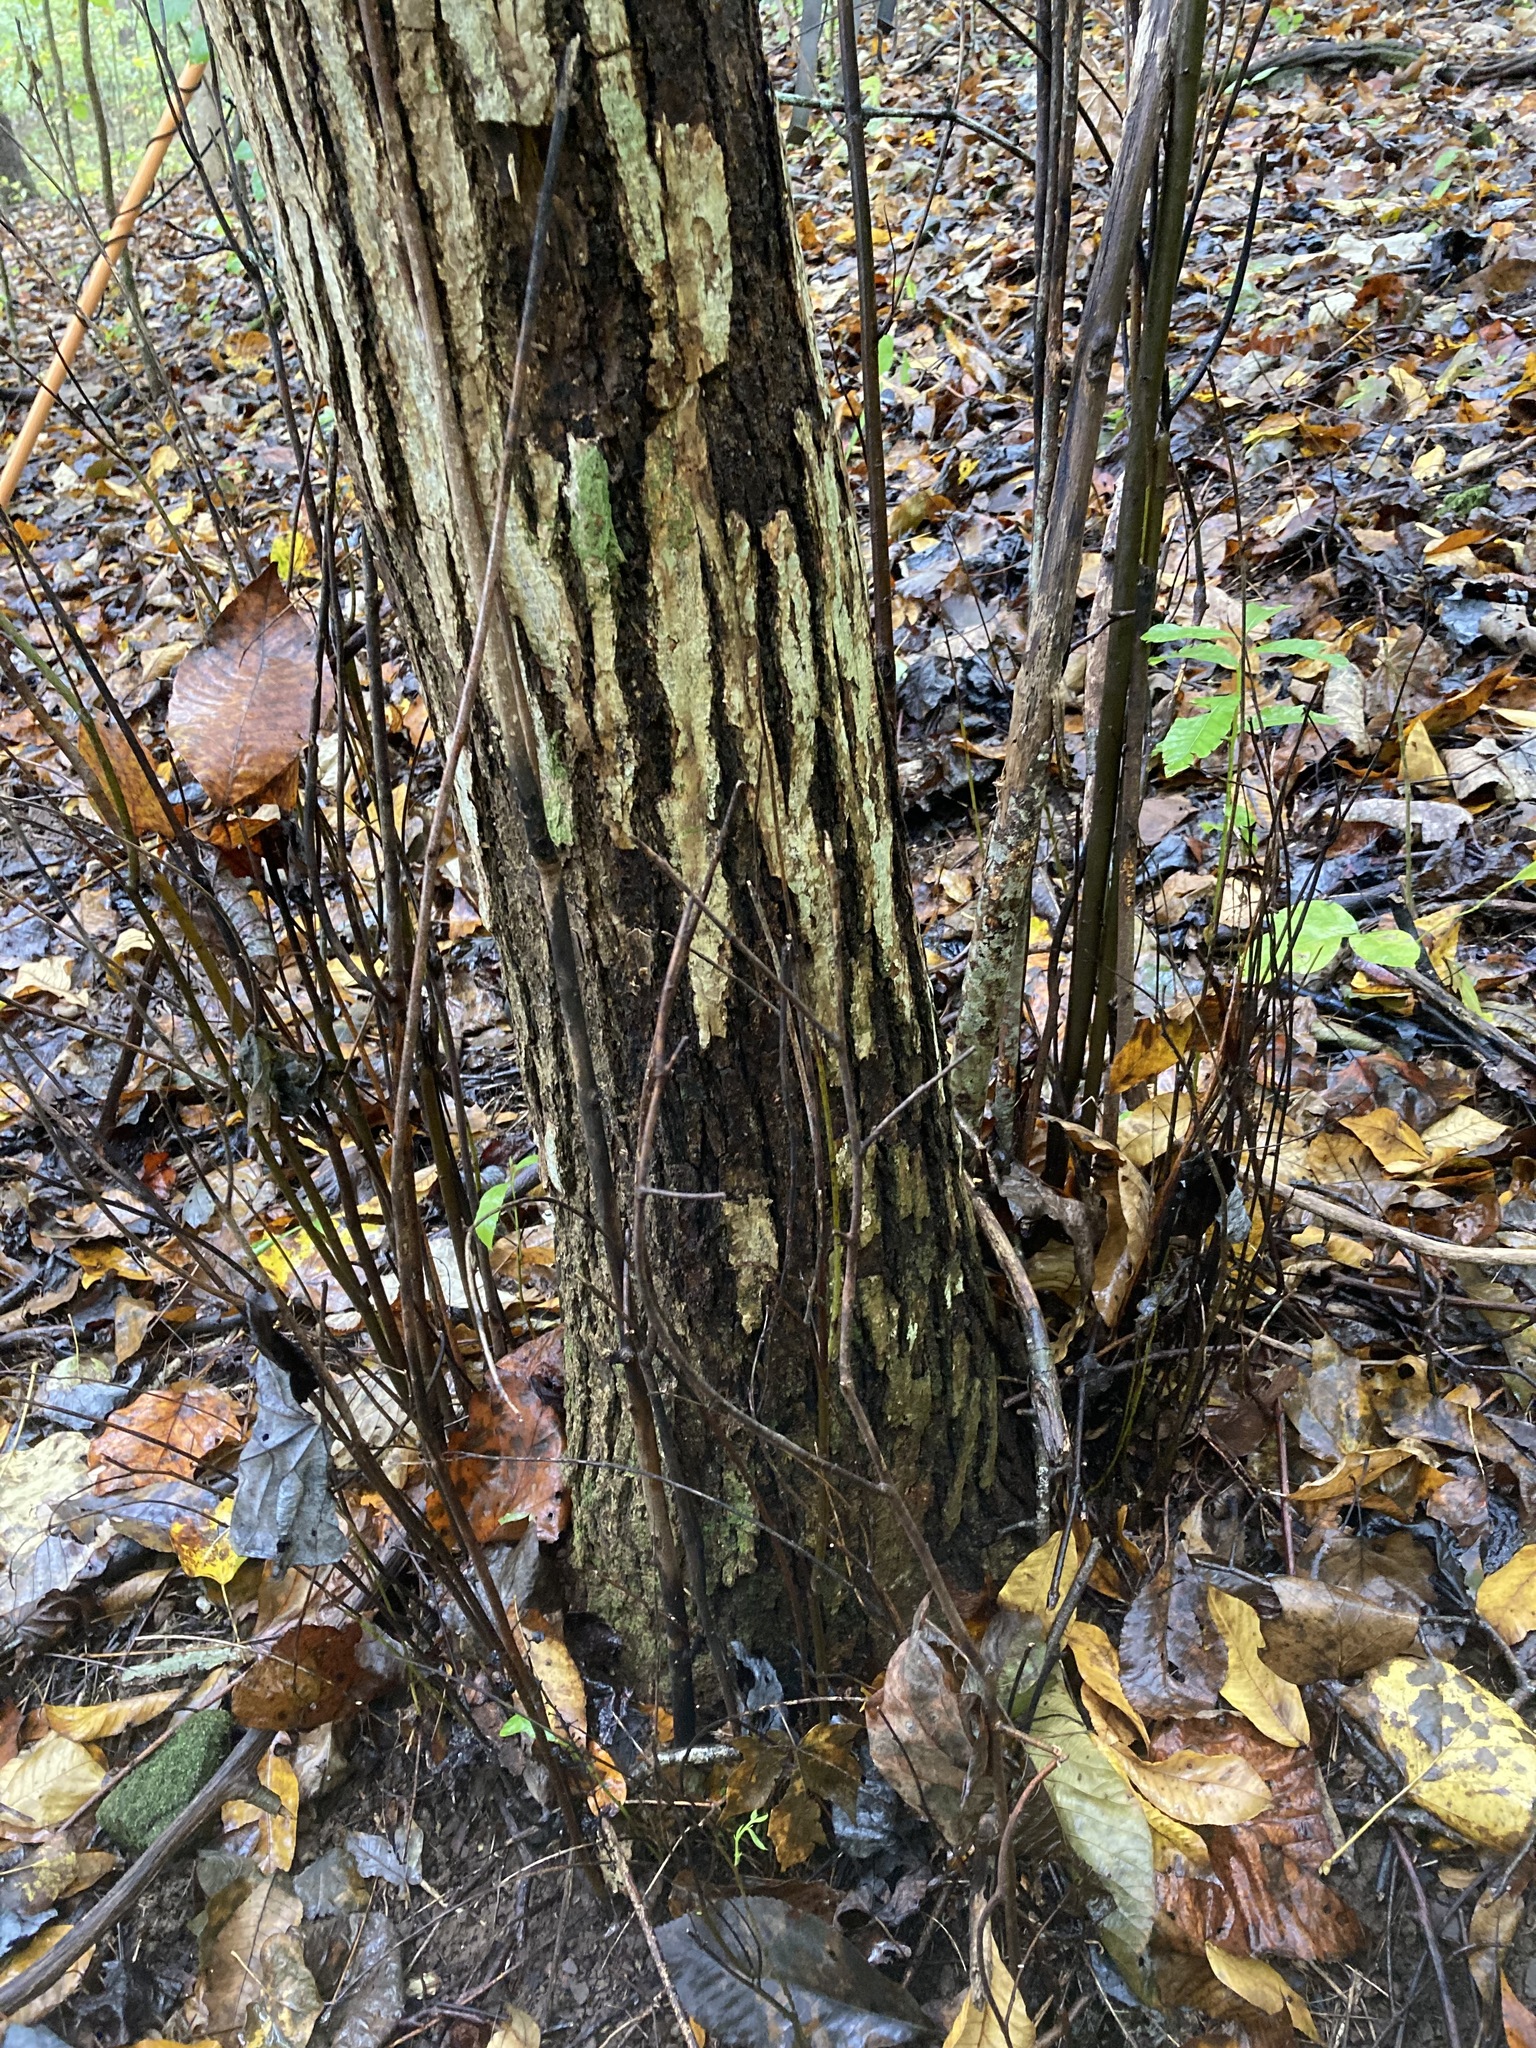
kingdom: Fungi
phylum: Ascomycota
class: Sordariomycetes
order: Diaporthales
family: Cryphonectriaceae
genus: Cryphonectria
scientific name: Cryphonectria parasitica
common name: Chestnut blight
